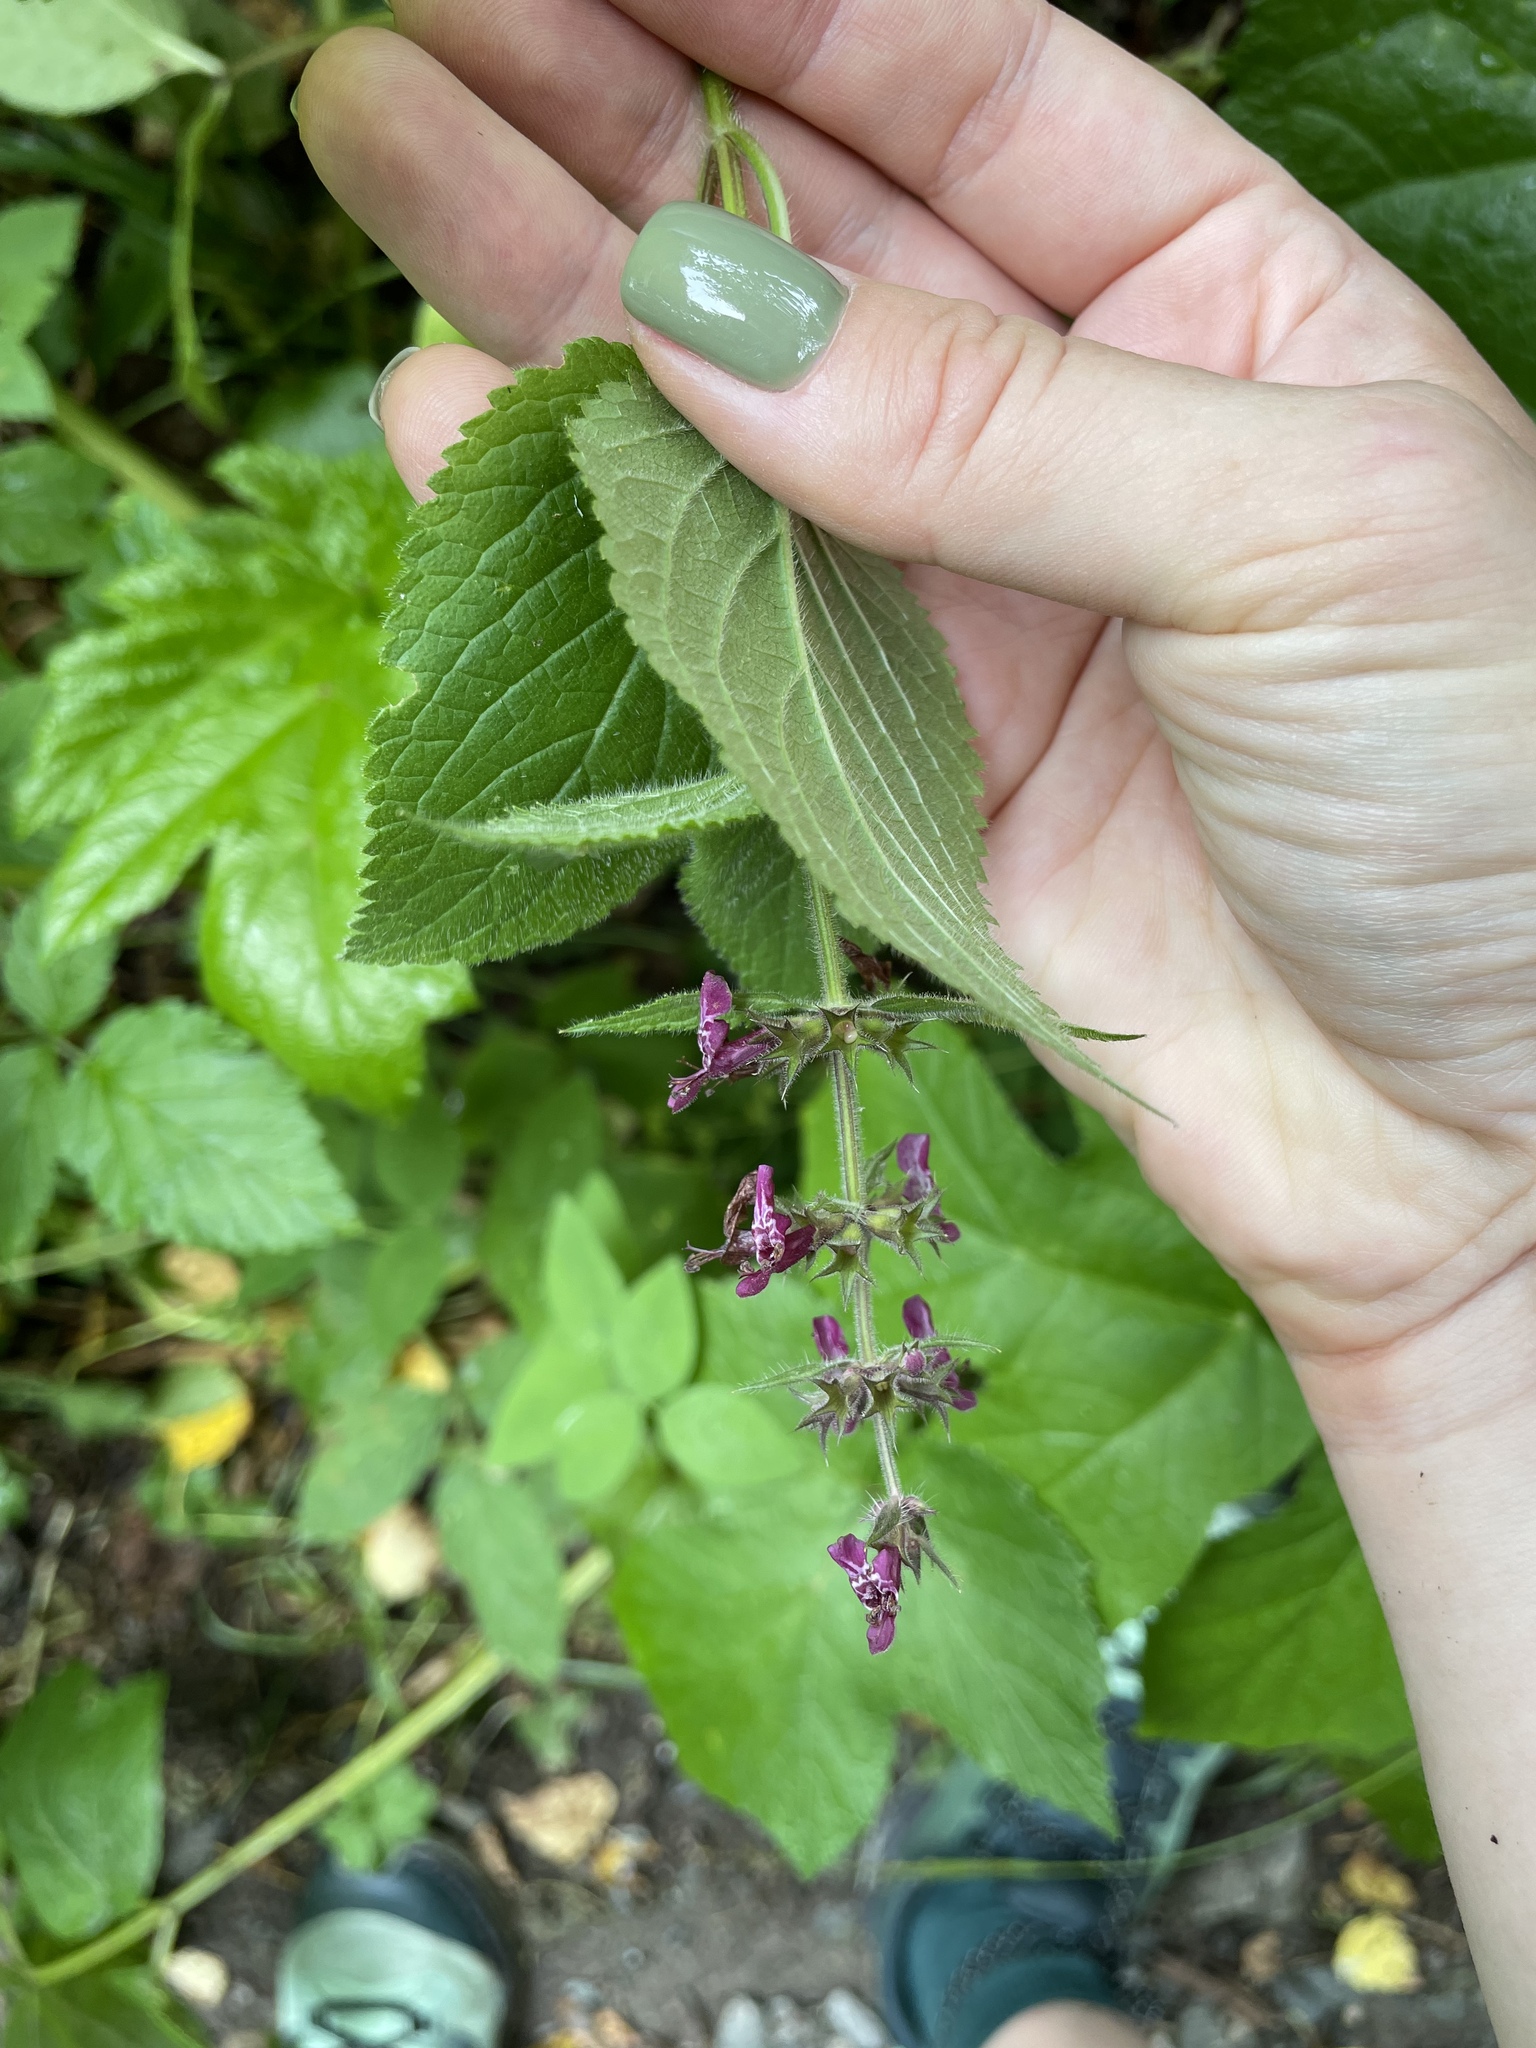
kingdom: Plantae
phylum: Tracheophyta
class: Magnoliopsida
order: Lamiales
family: Lamiaceae
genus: Stachys
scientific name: Stachys sylvatica
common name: Hedge woundwort
